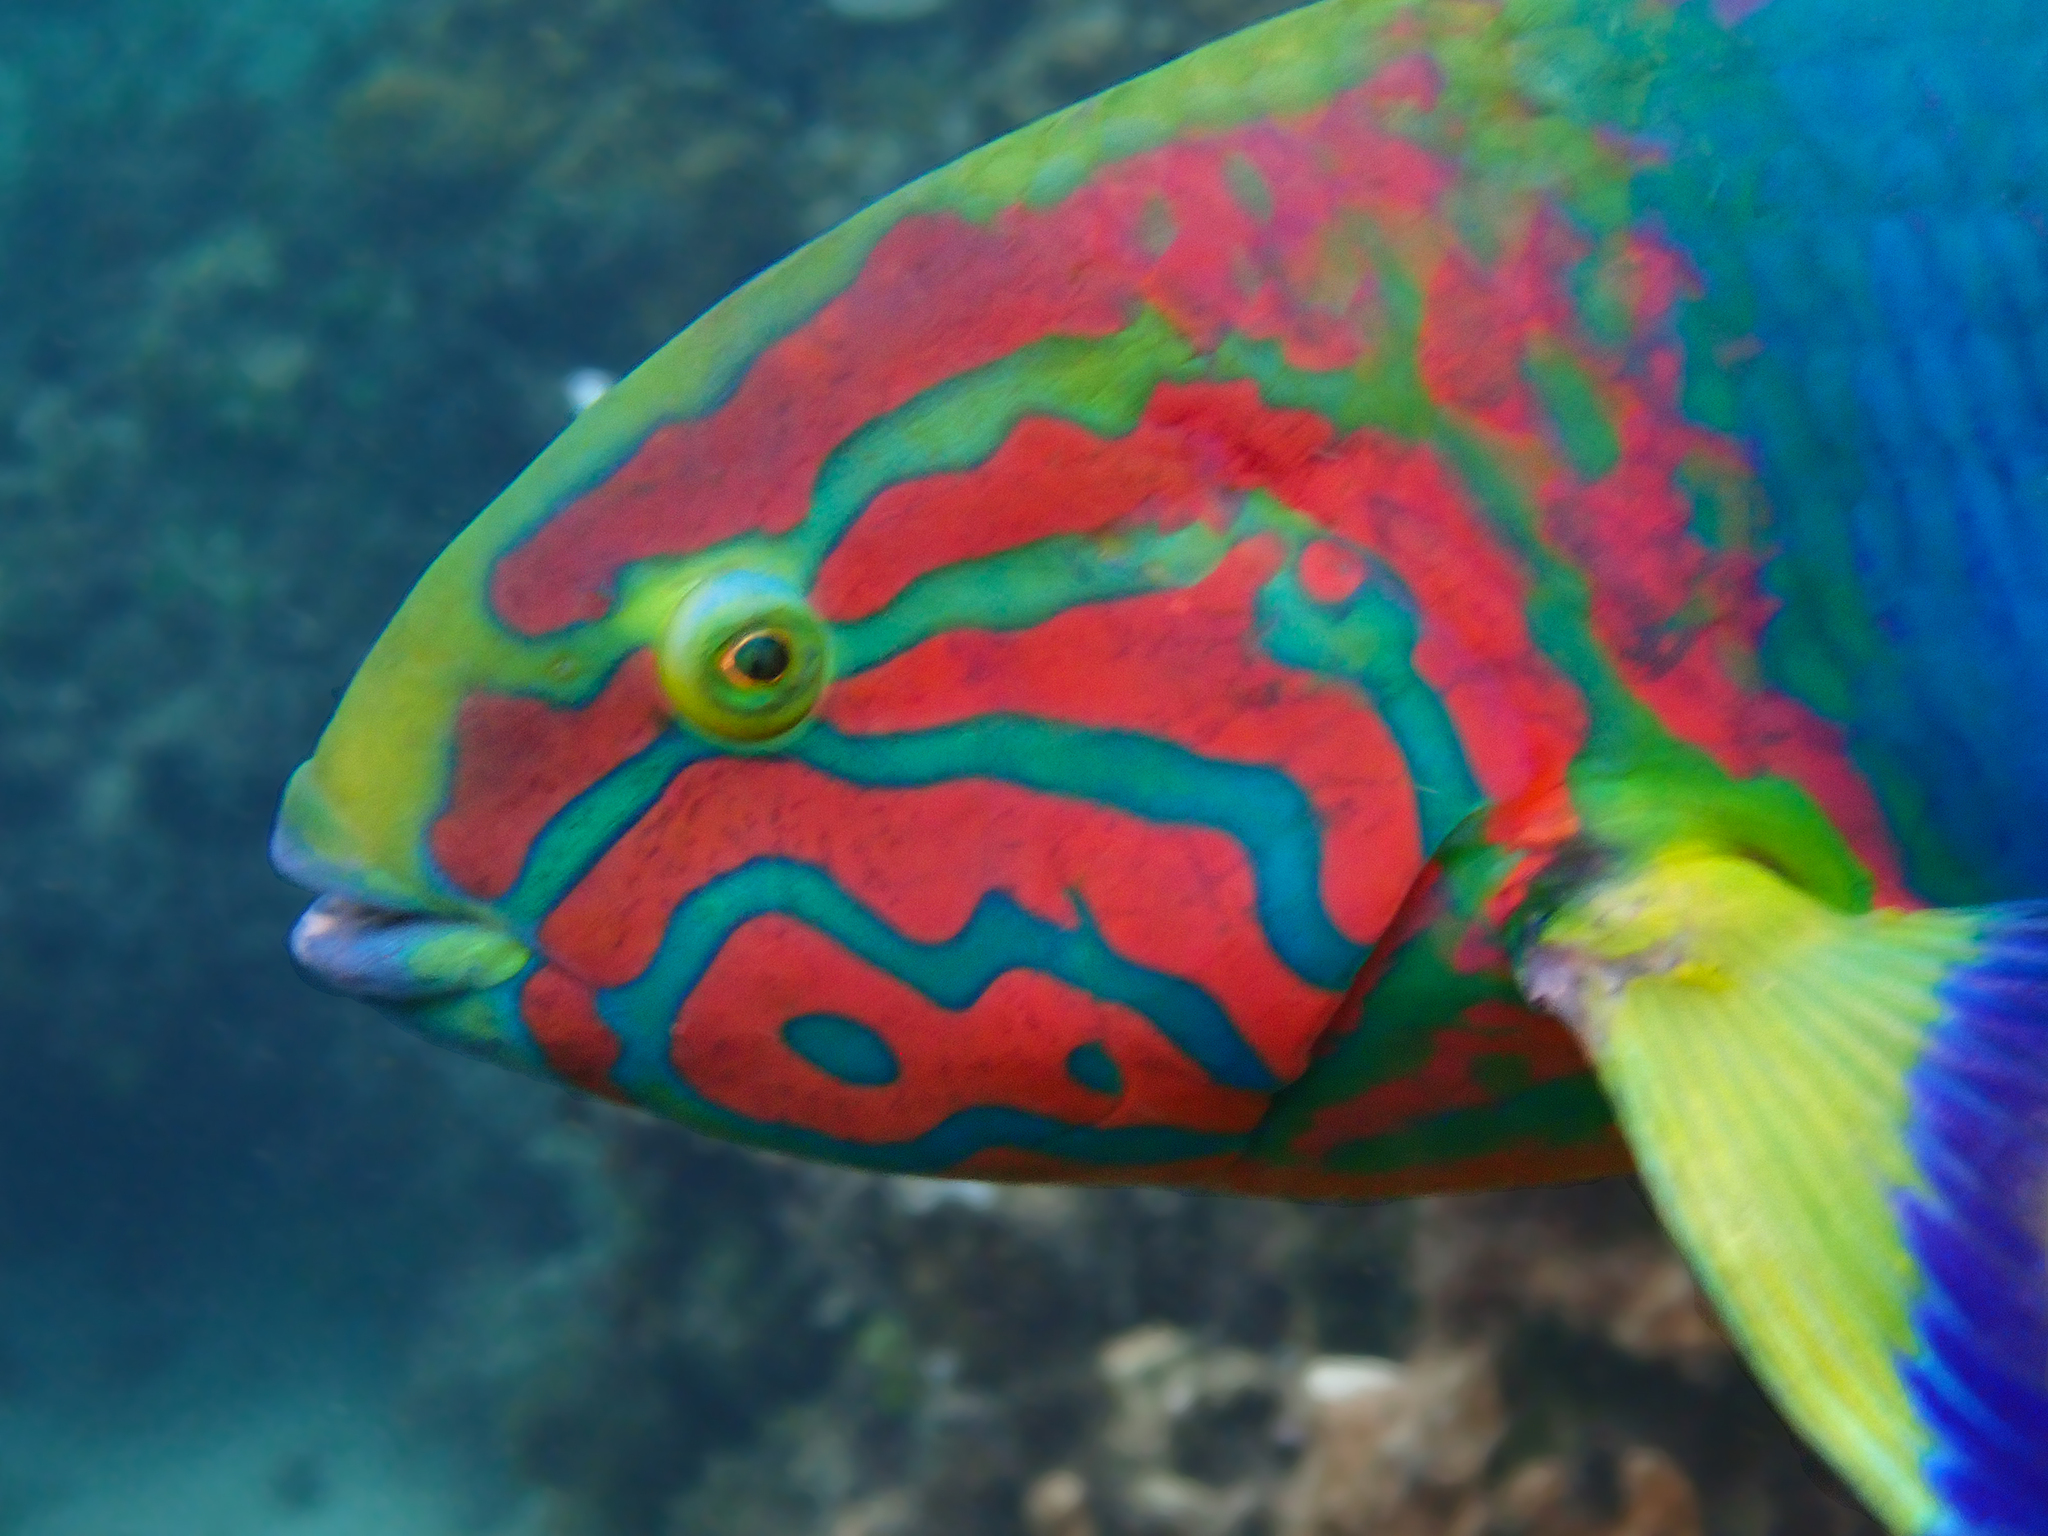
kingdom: Animalia
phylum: Chordata
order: Perciformes
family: Labridae
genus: Thalassoma
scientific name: Thalassoma lutescens
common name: Green moon wrasse
